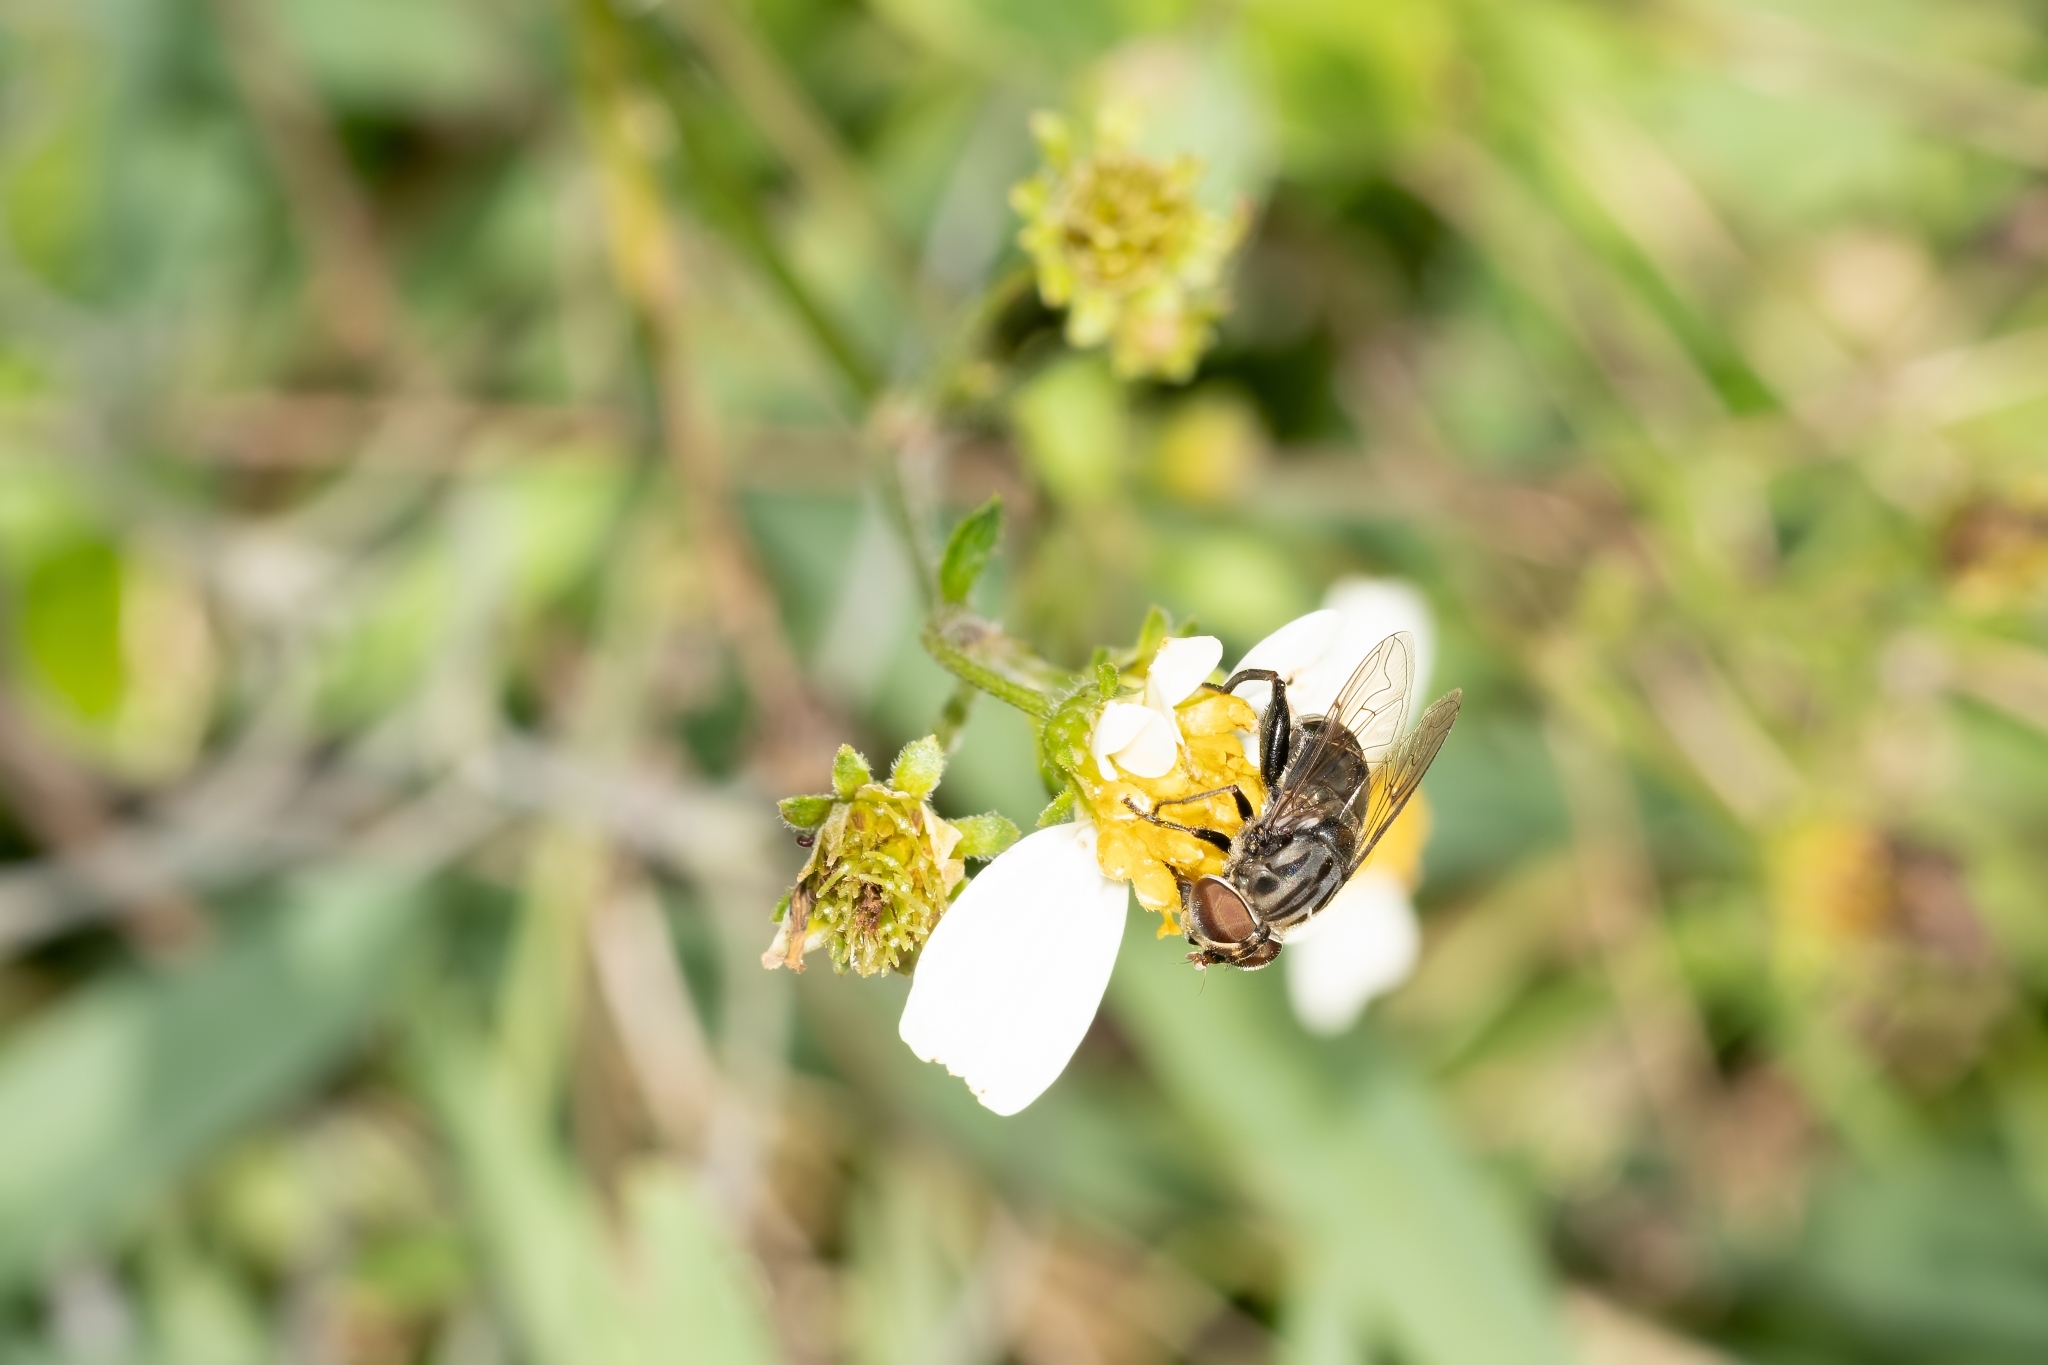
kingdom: Animalia
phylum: Arthropoda
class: Insecta
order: Diptera
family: Syrphidae
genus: Palpada
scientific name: Palpada furcata
